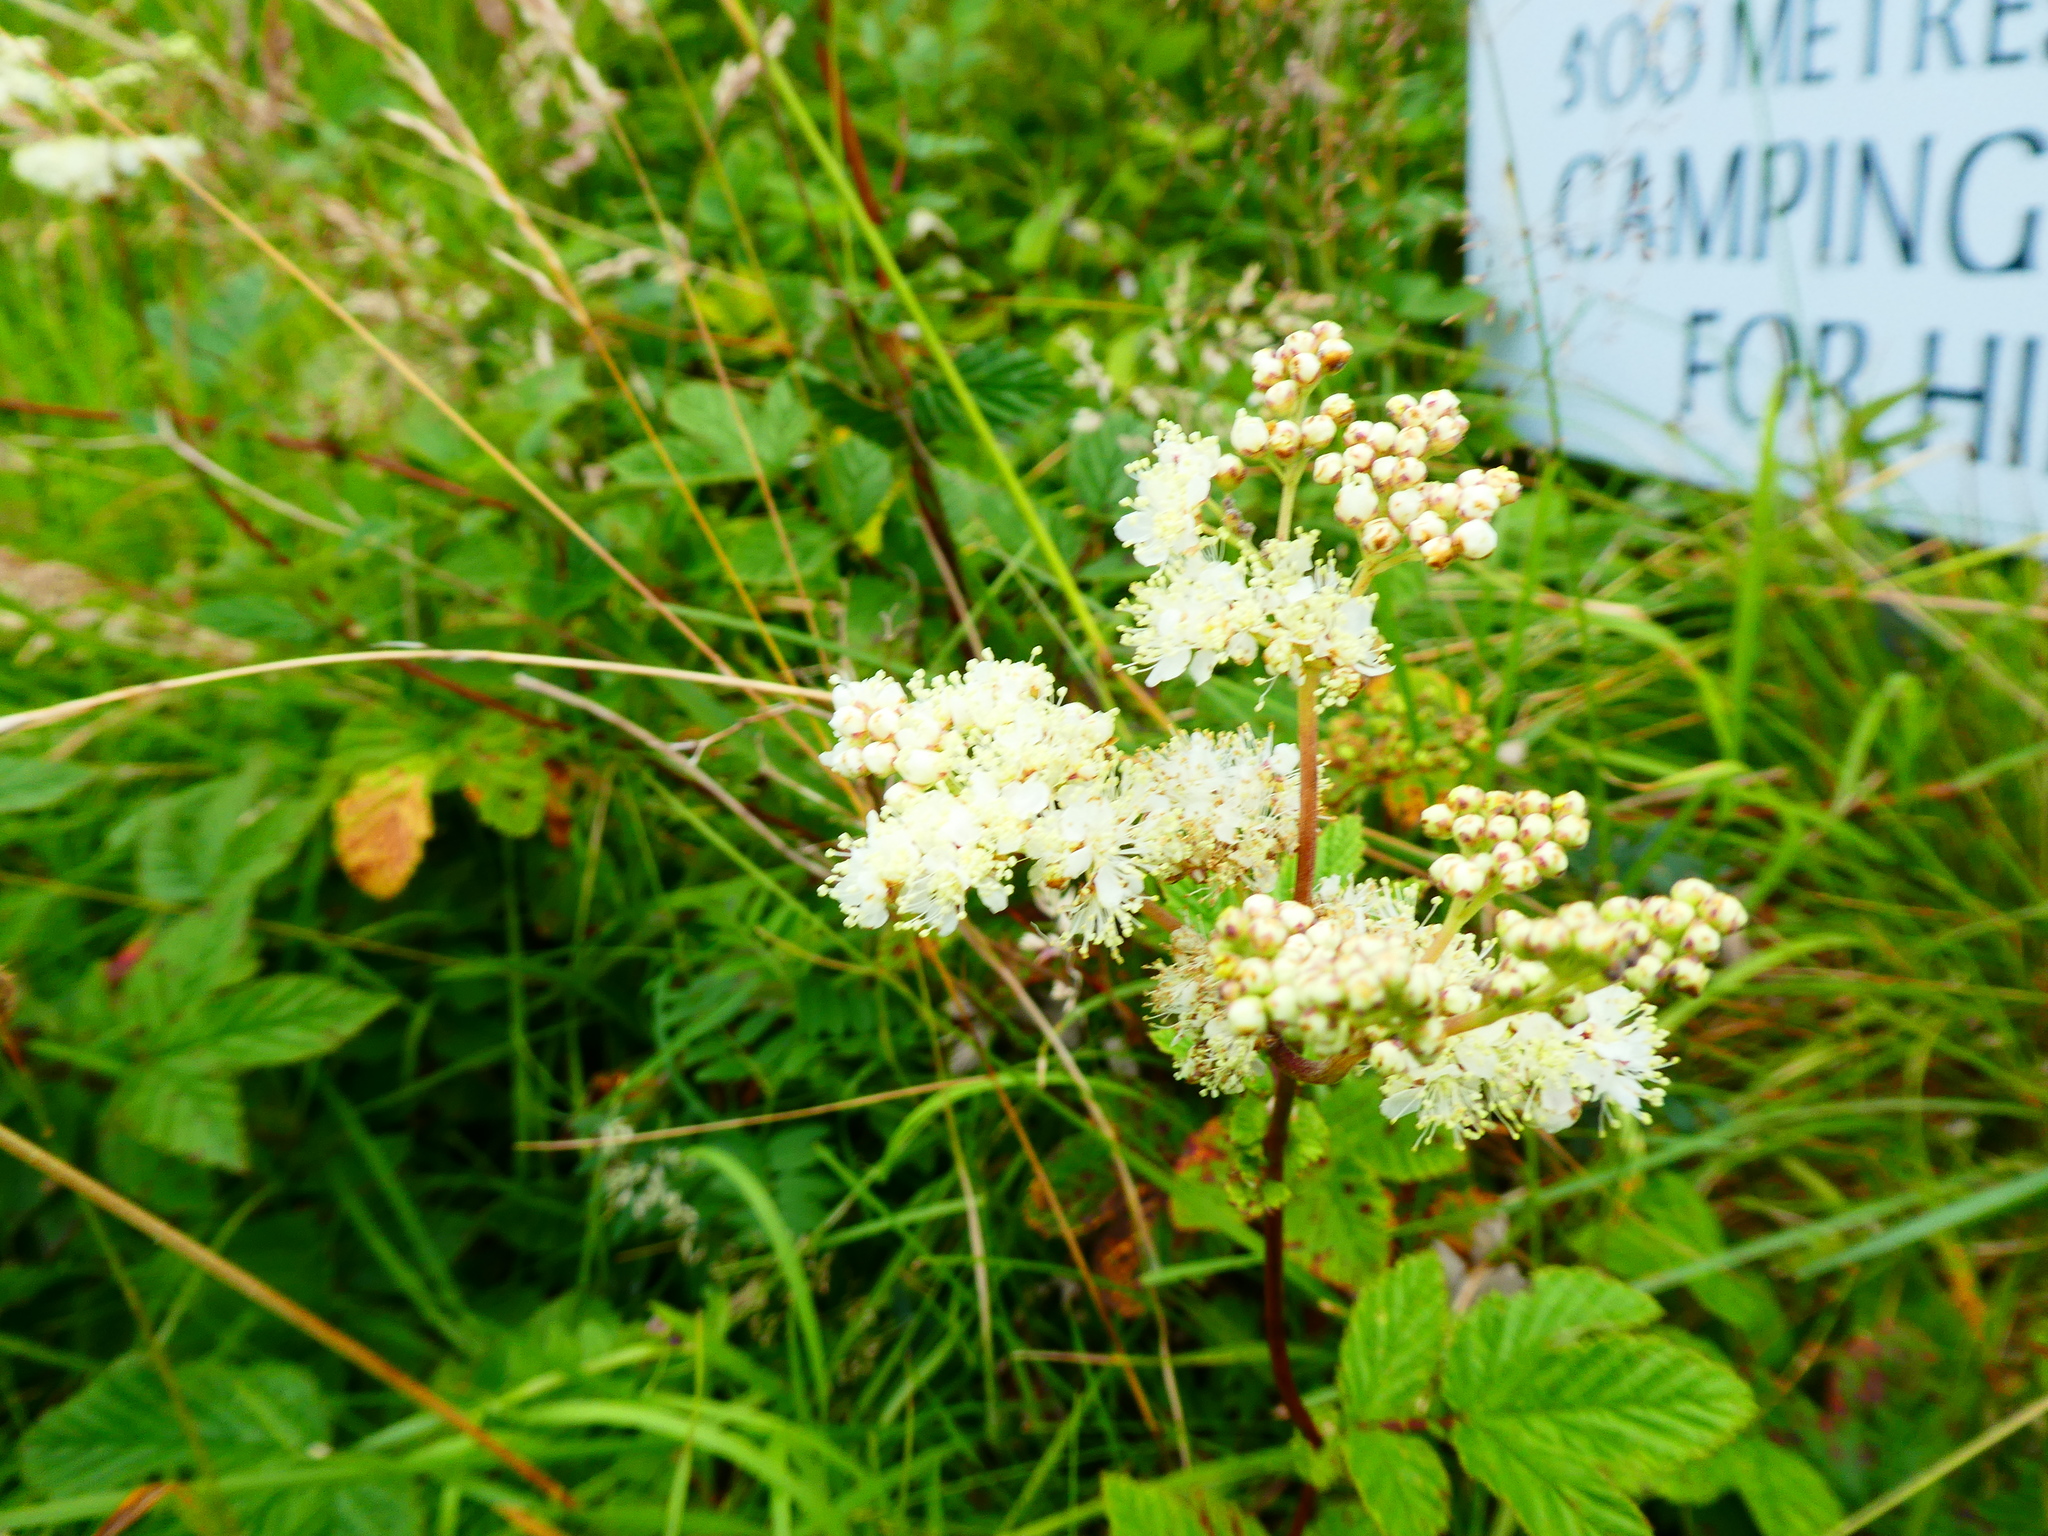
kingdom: Plantae
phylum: Tracheophyta
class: Magnoliopsida
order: Rosales
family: Rosaceae
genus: Filipendula
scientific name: Filipendula ulmaria
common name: Meadowsweet
